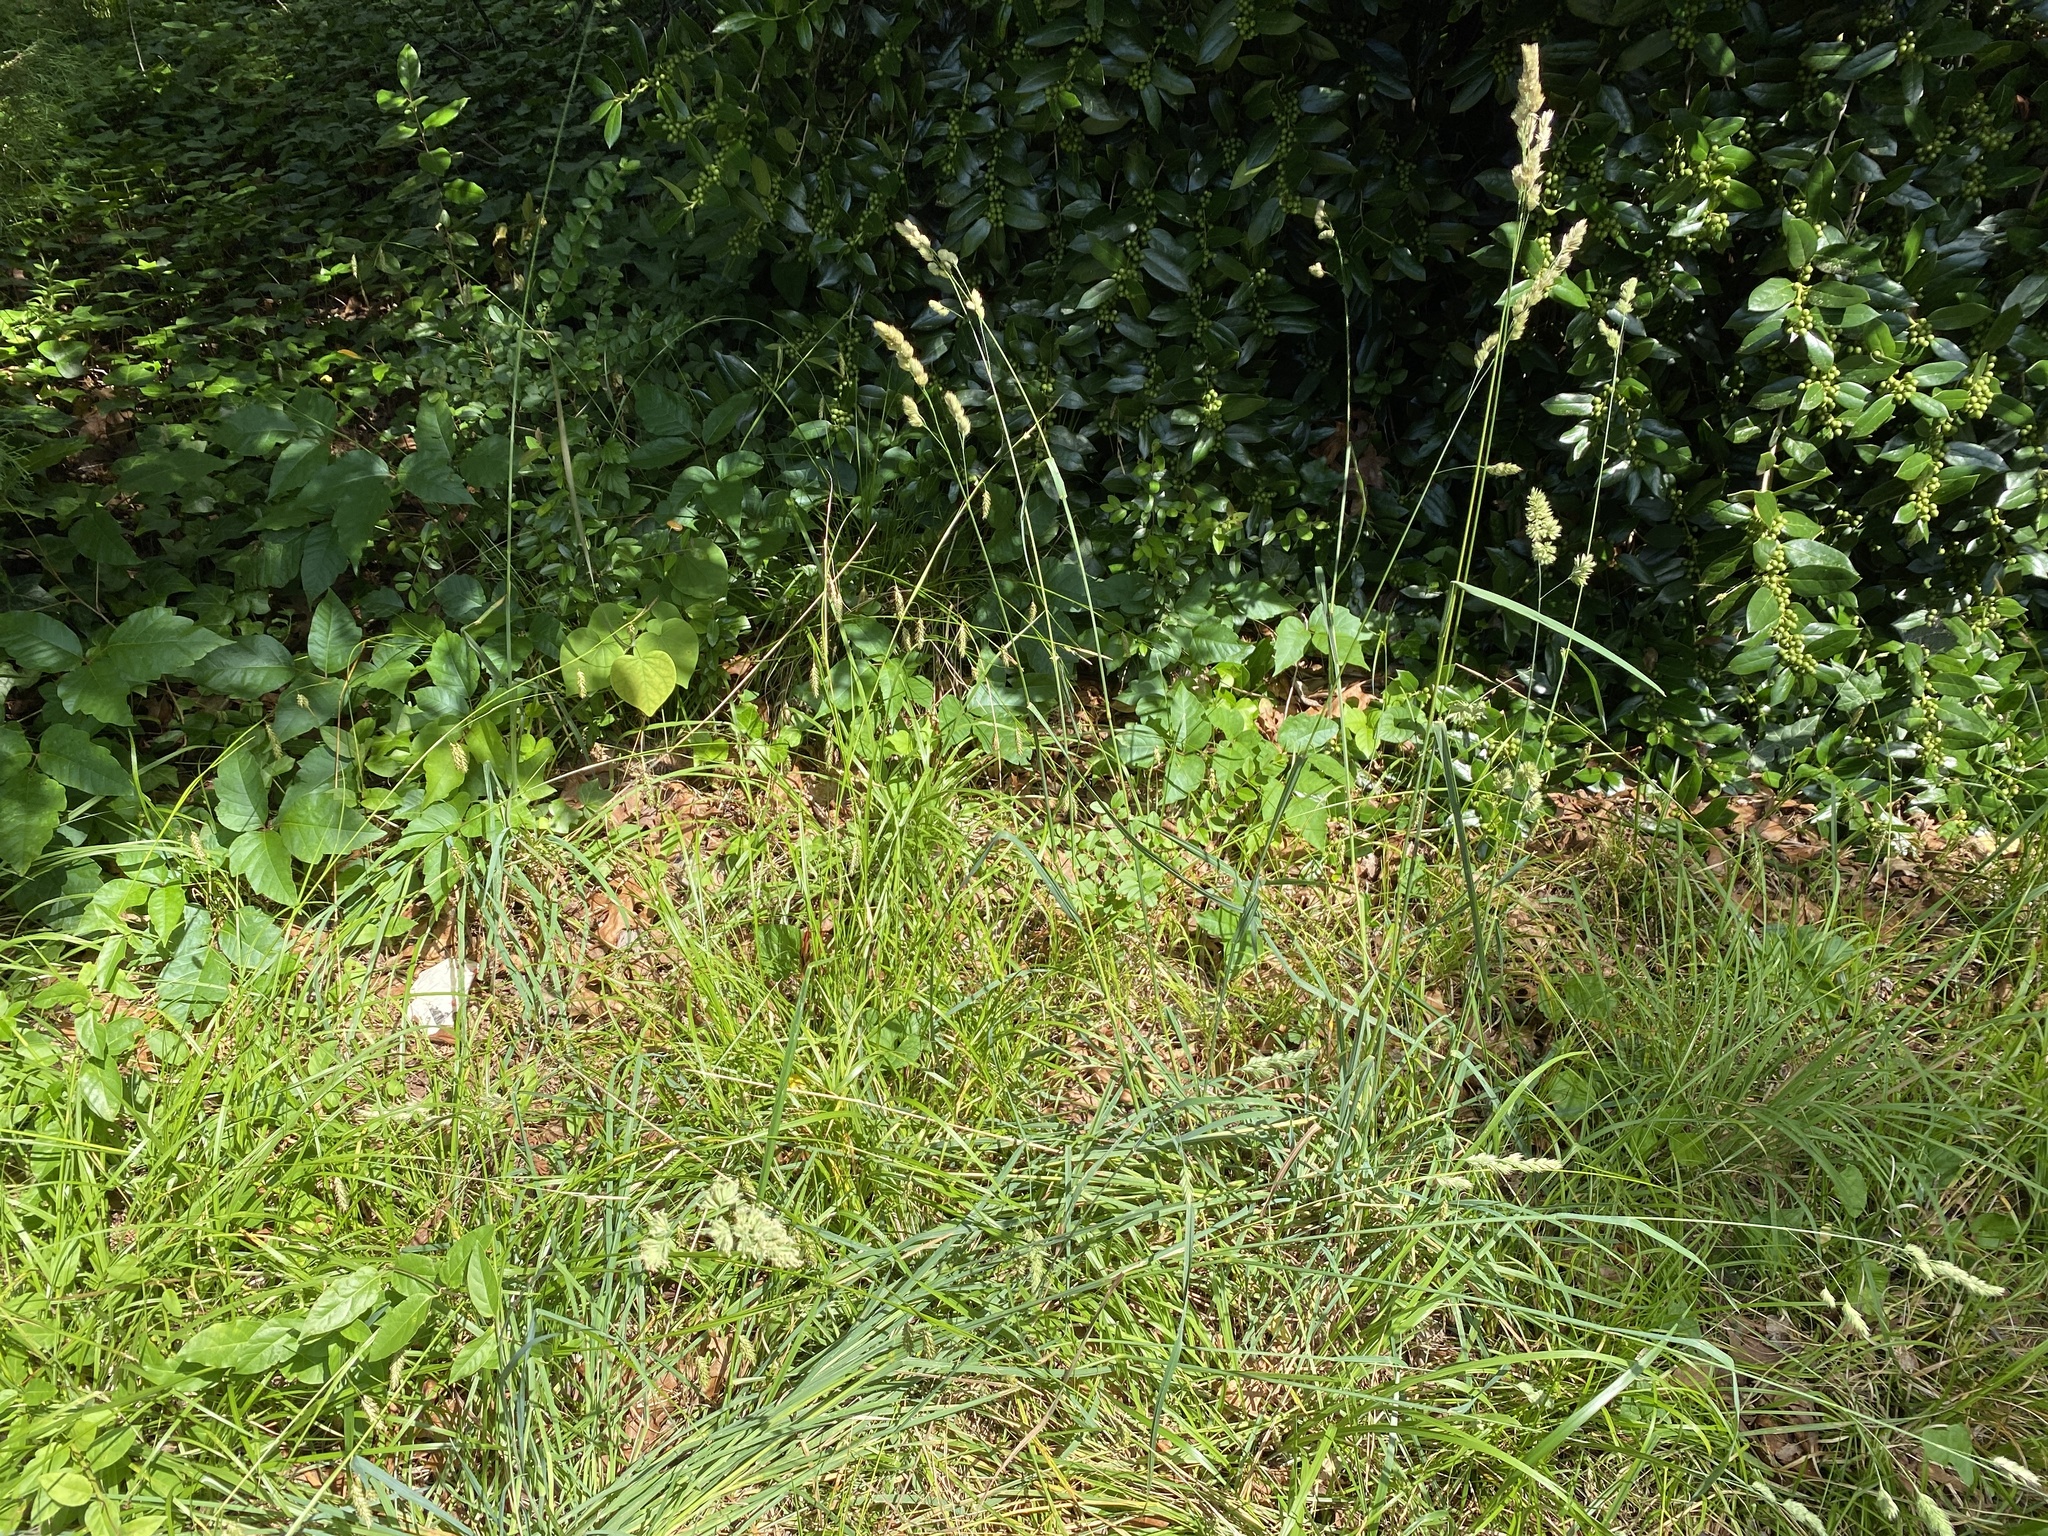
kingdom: Plantae
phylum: Tracheophyta
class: Liliopsida
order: Poales
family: Poaceae
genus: Dactylis
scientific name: Dactylis glomerata
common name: Orchardgrass
